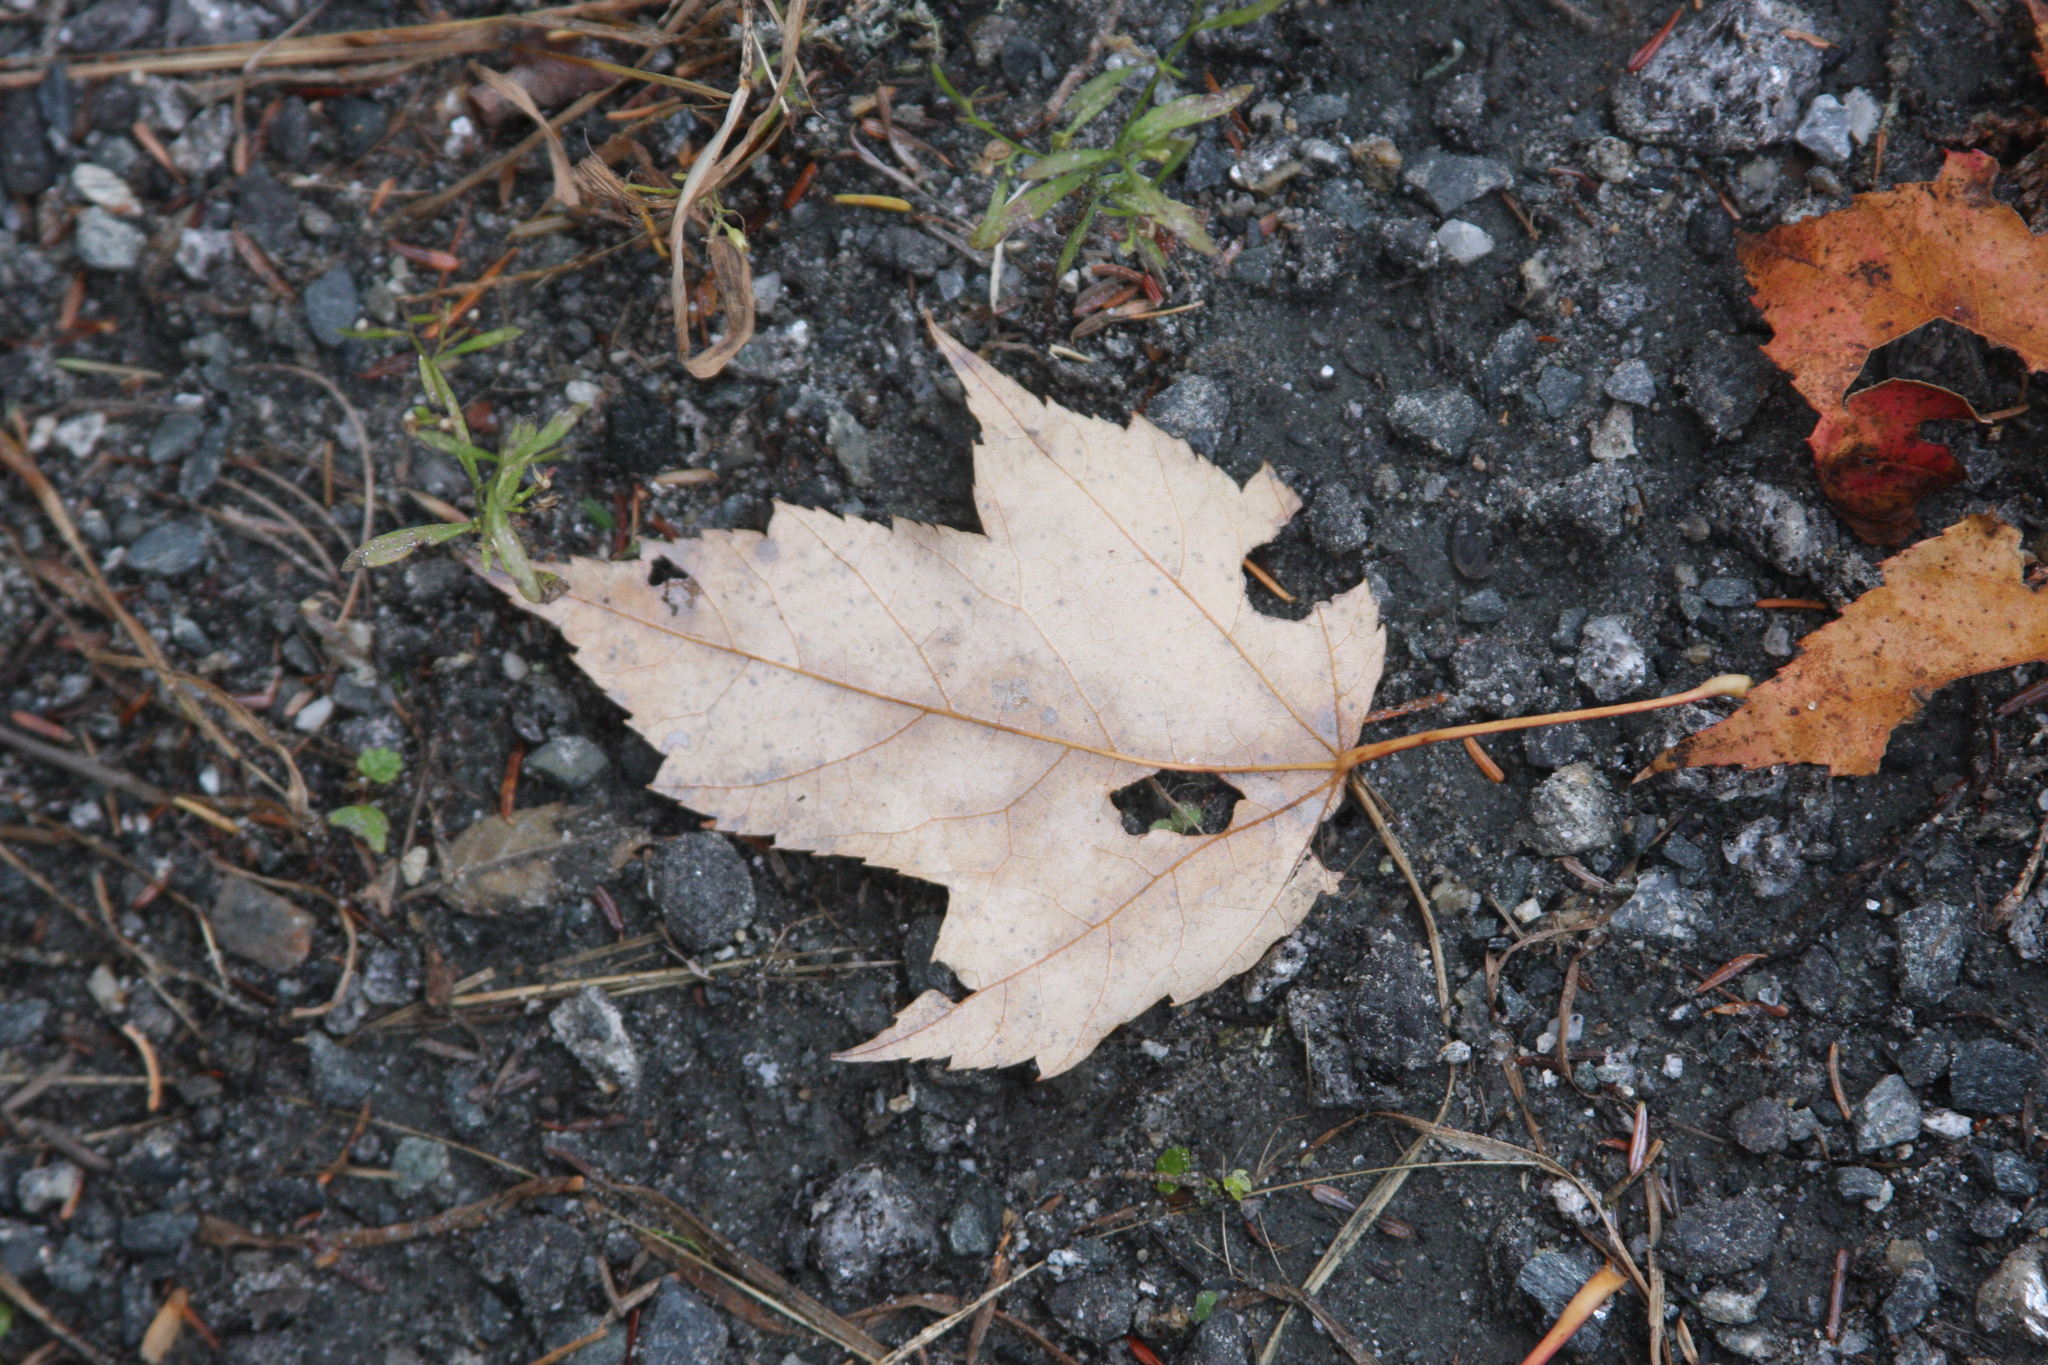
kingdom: Plantae
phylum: Tracheophyta
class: Magnoliopsida
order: Sapindales
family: Sapindaceae
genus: Acer
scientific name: Acer rubrum
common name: Red maple
